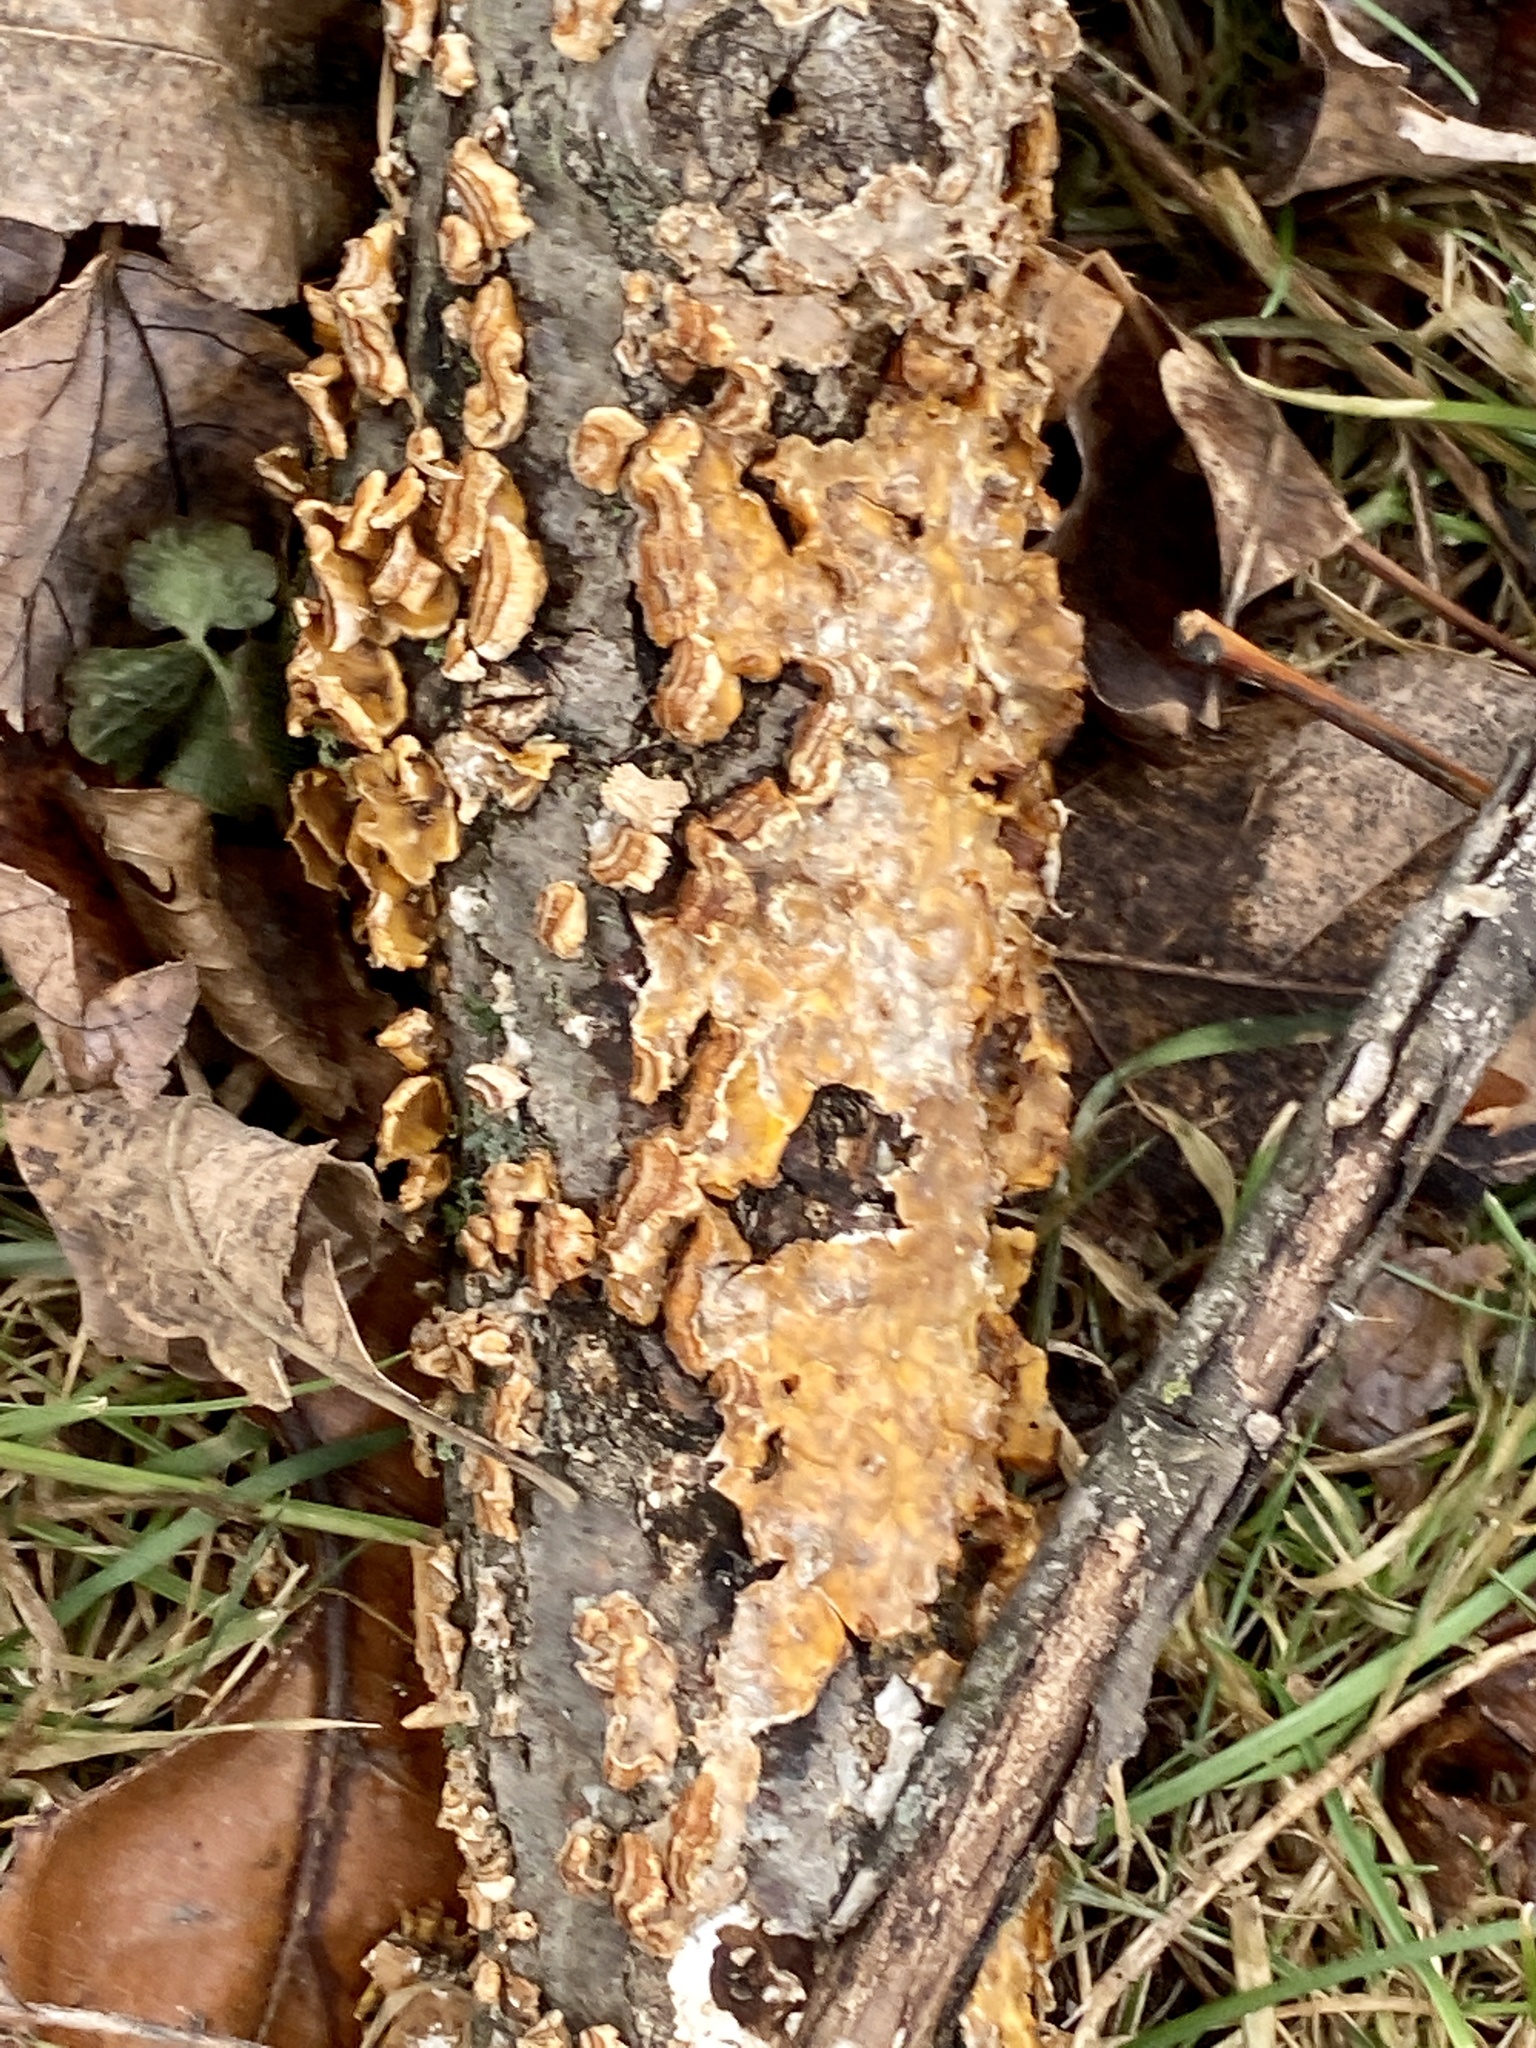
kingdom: Fungi
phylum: Basidiomycota
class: Agaricomycetes
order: Russulales
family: Stereaceae
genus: Stereum
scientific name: Stereum complicatum
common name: Crowded parchment
